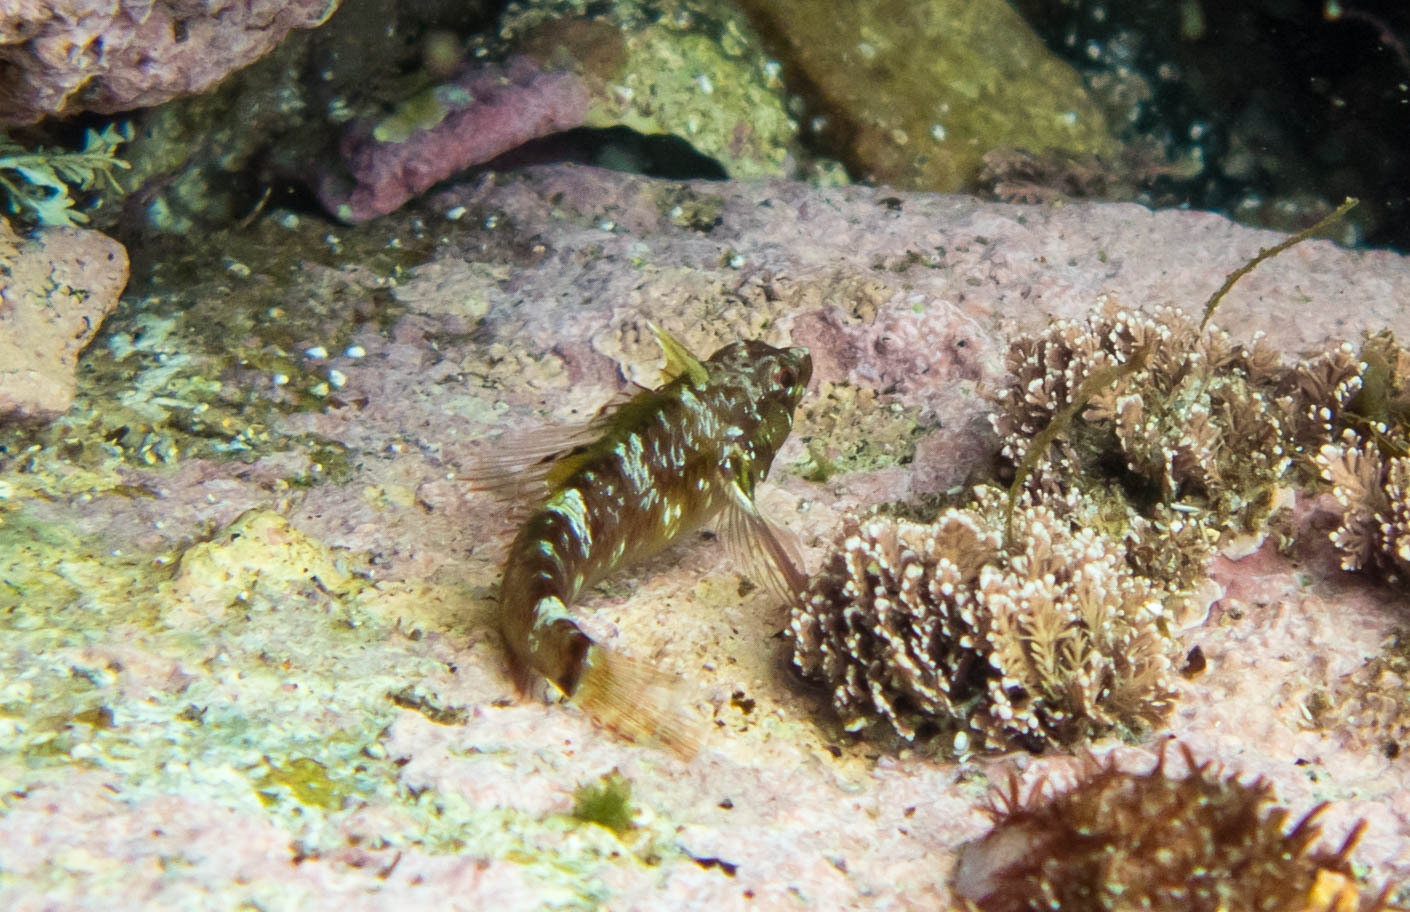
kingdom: Animalia
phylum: Chordata
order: Perciformes
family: Tripterygiidae
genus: Enneapterygius
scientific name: Enneapterygius atrogulare
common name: Blackthroat triplefin
